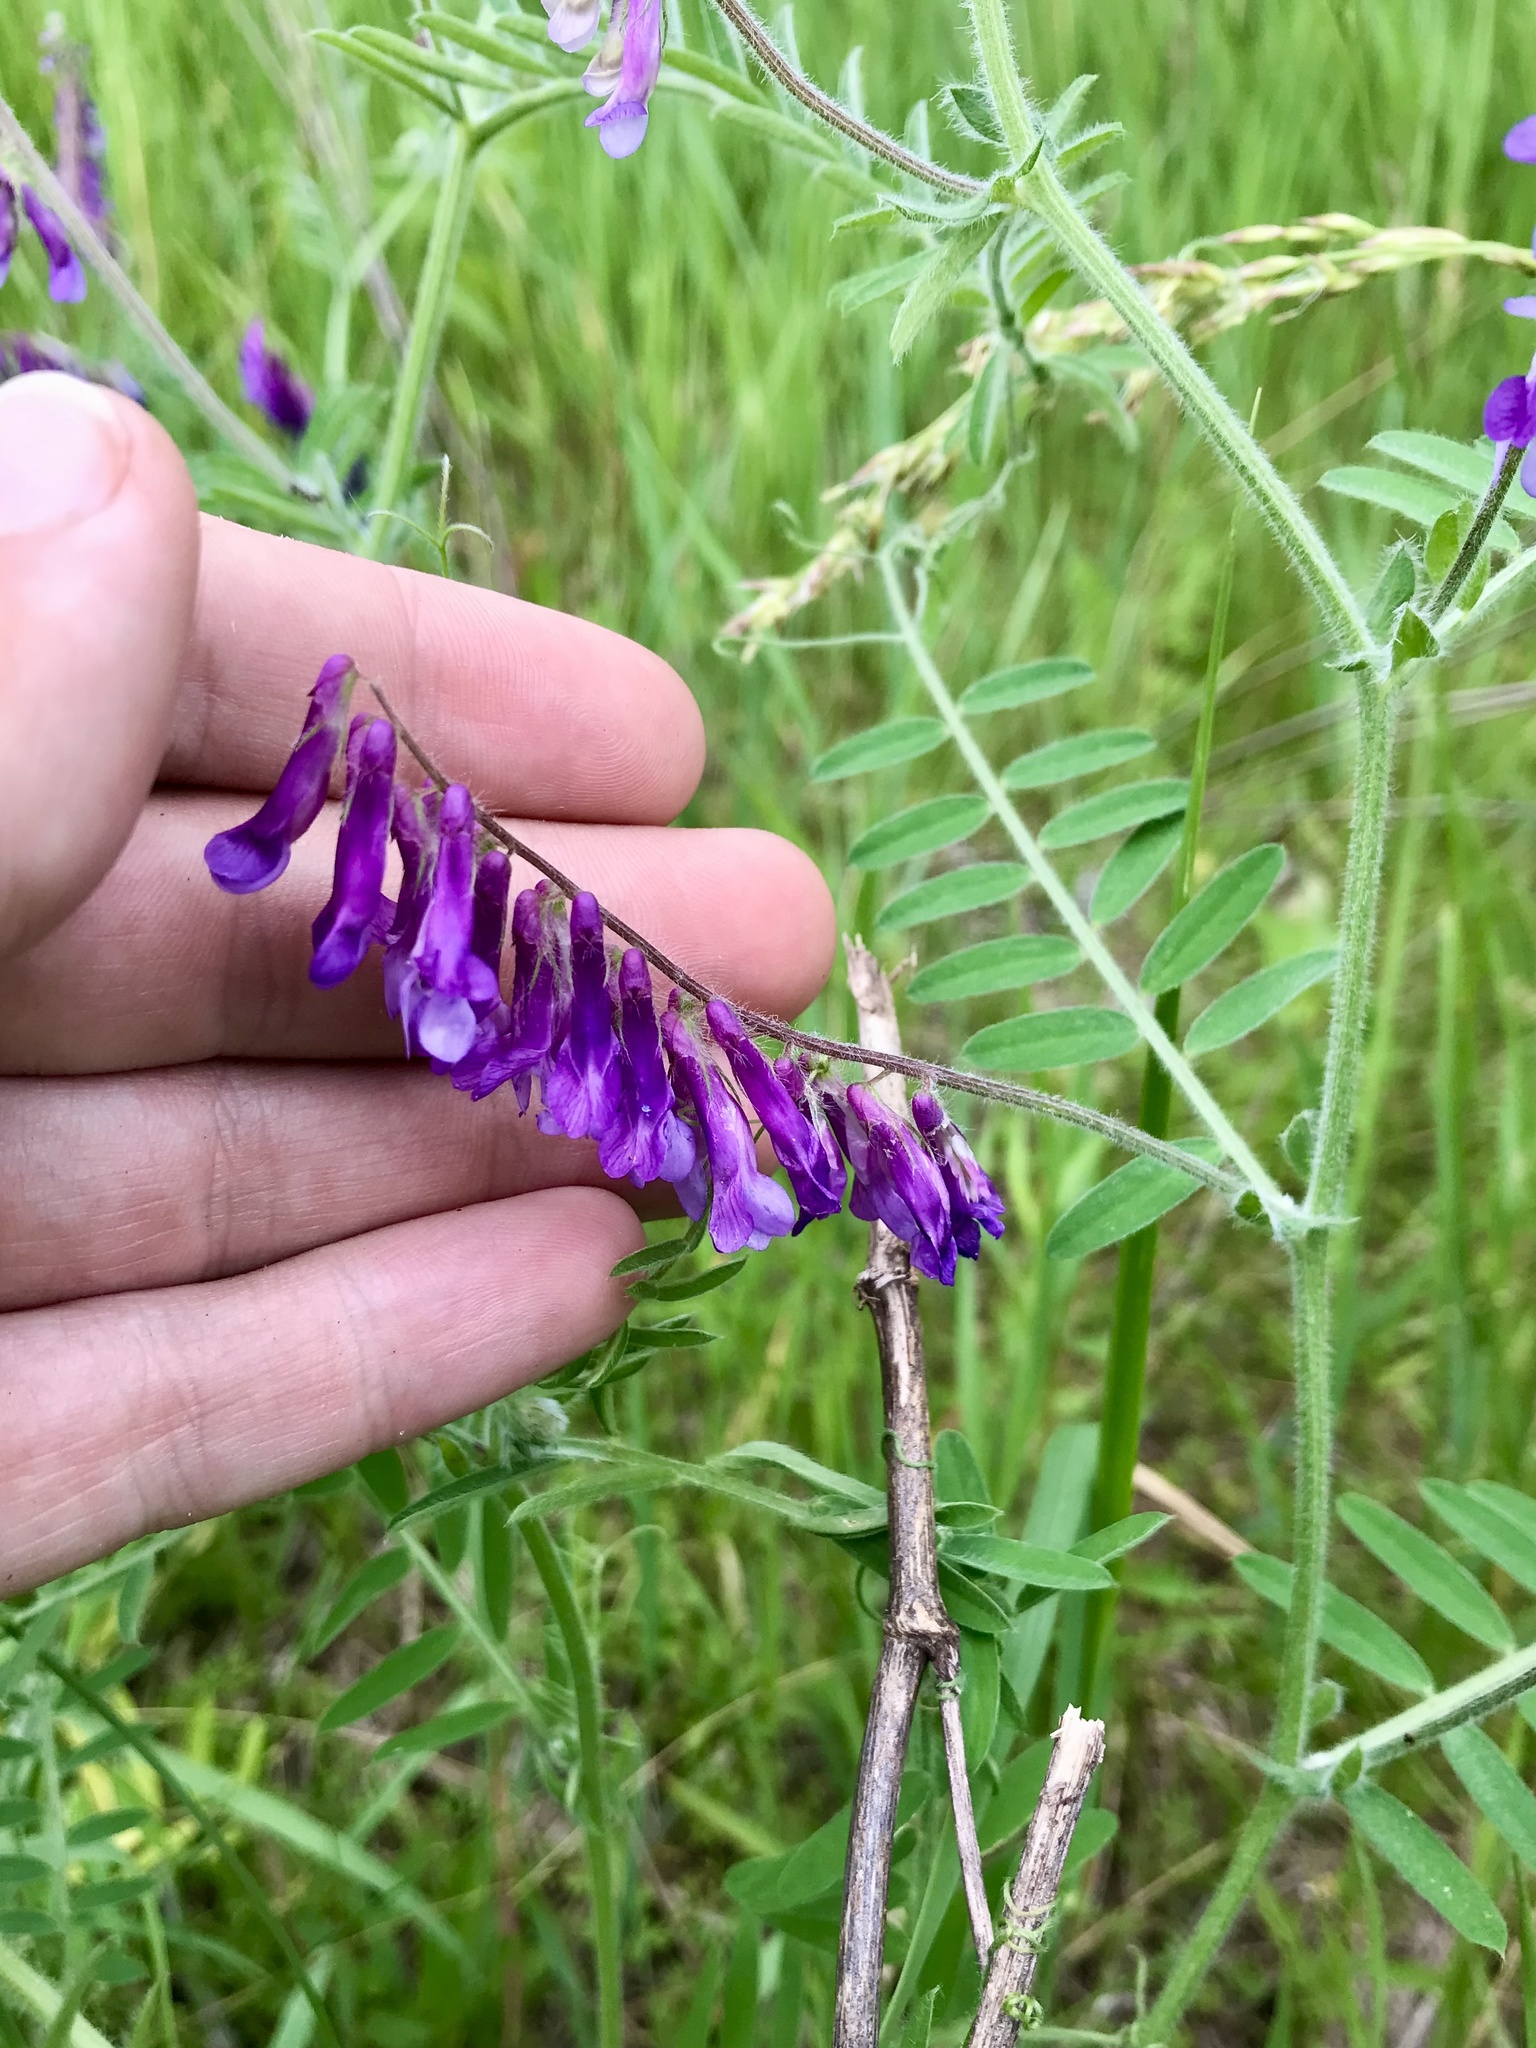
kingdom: Plantae
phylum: Tracheophyta
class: Magnoliopsida
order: Fabales
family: Fabaceae
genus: Vicia
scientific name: Vicia villosa
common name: Fodder vetch
